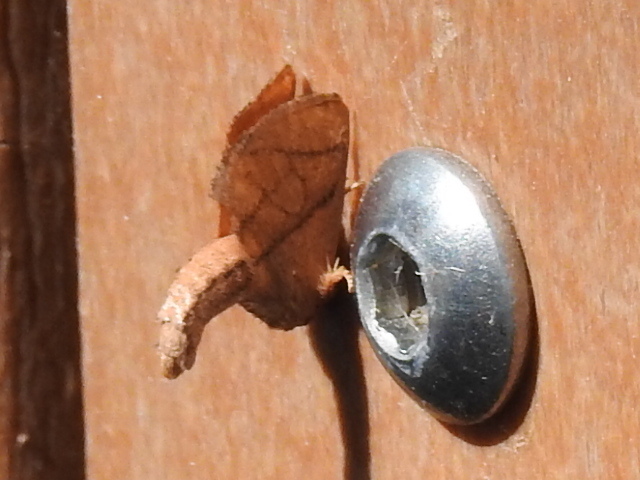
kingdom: Animalia
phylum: Arthropoda
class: Insecta
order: Lepidoptera
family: Limacodidae
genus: Apoda
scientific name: Apoda y-inversa
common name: Yellow-collared slug moth
